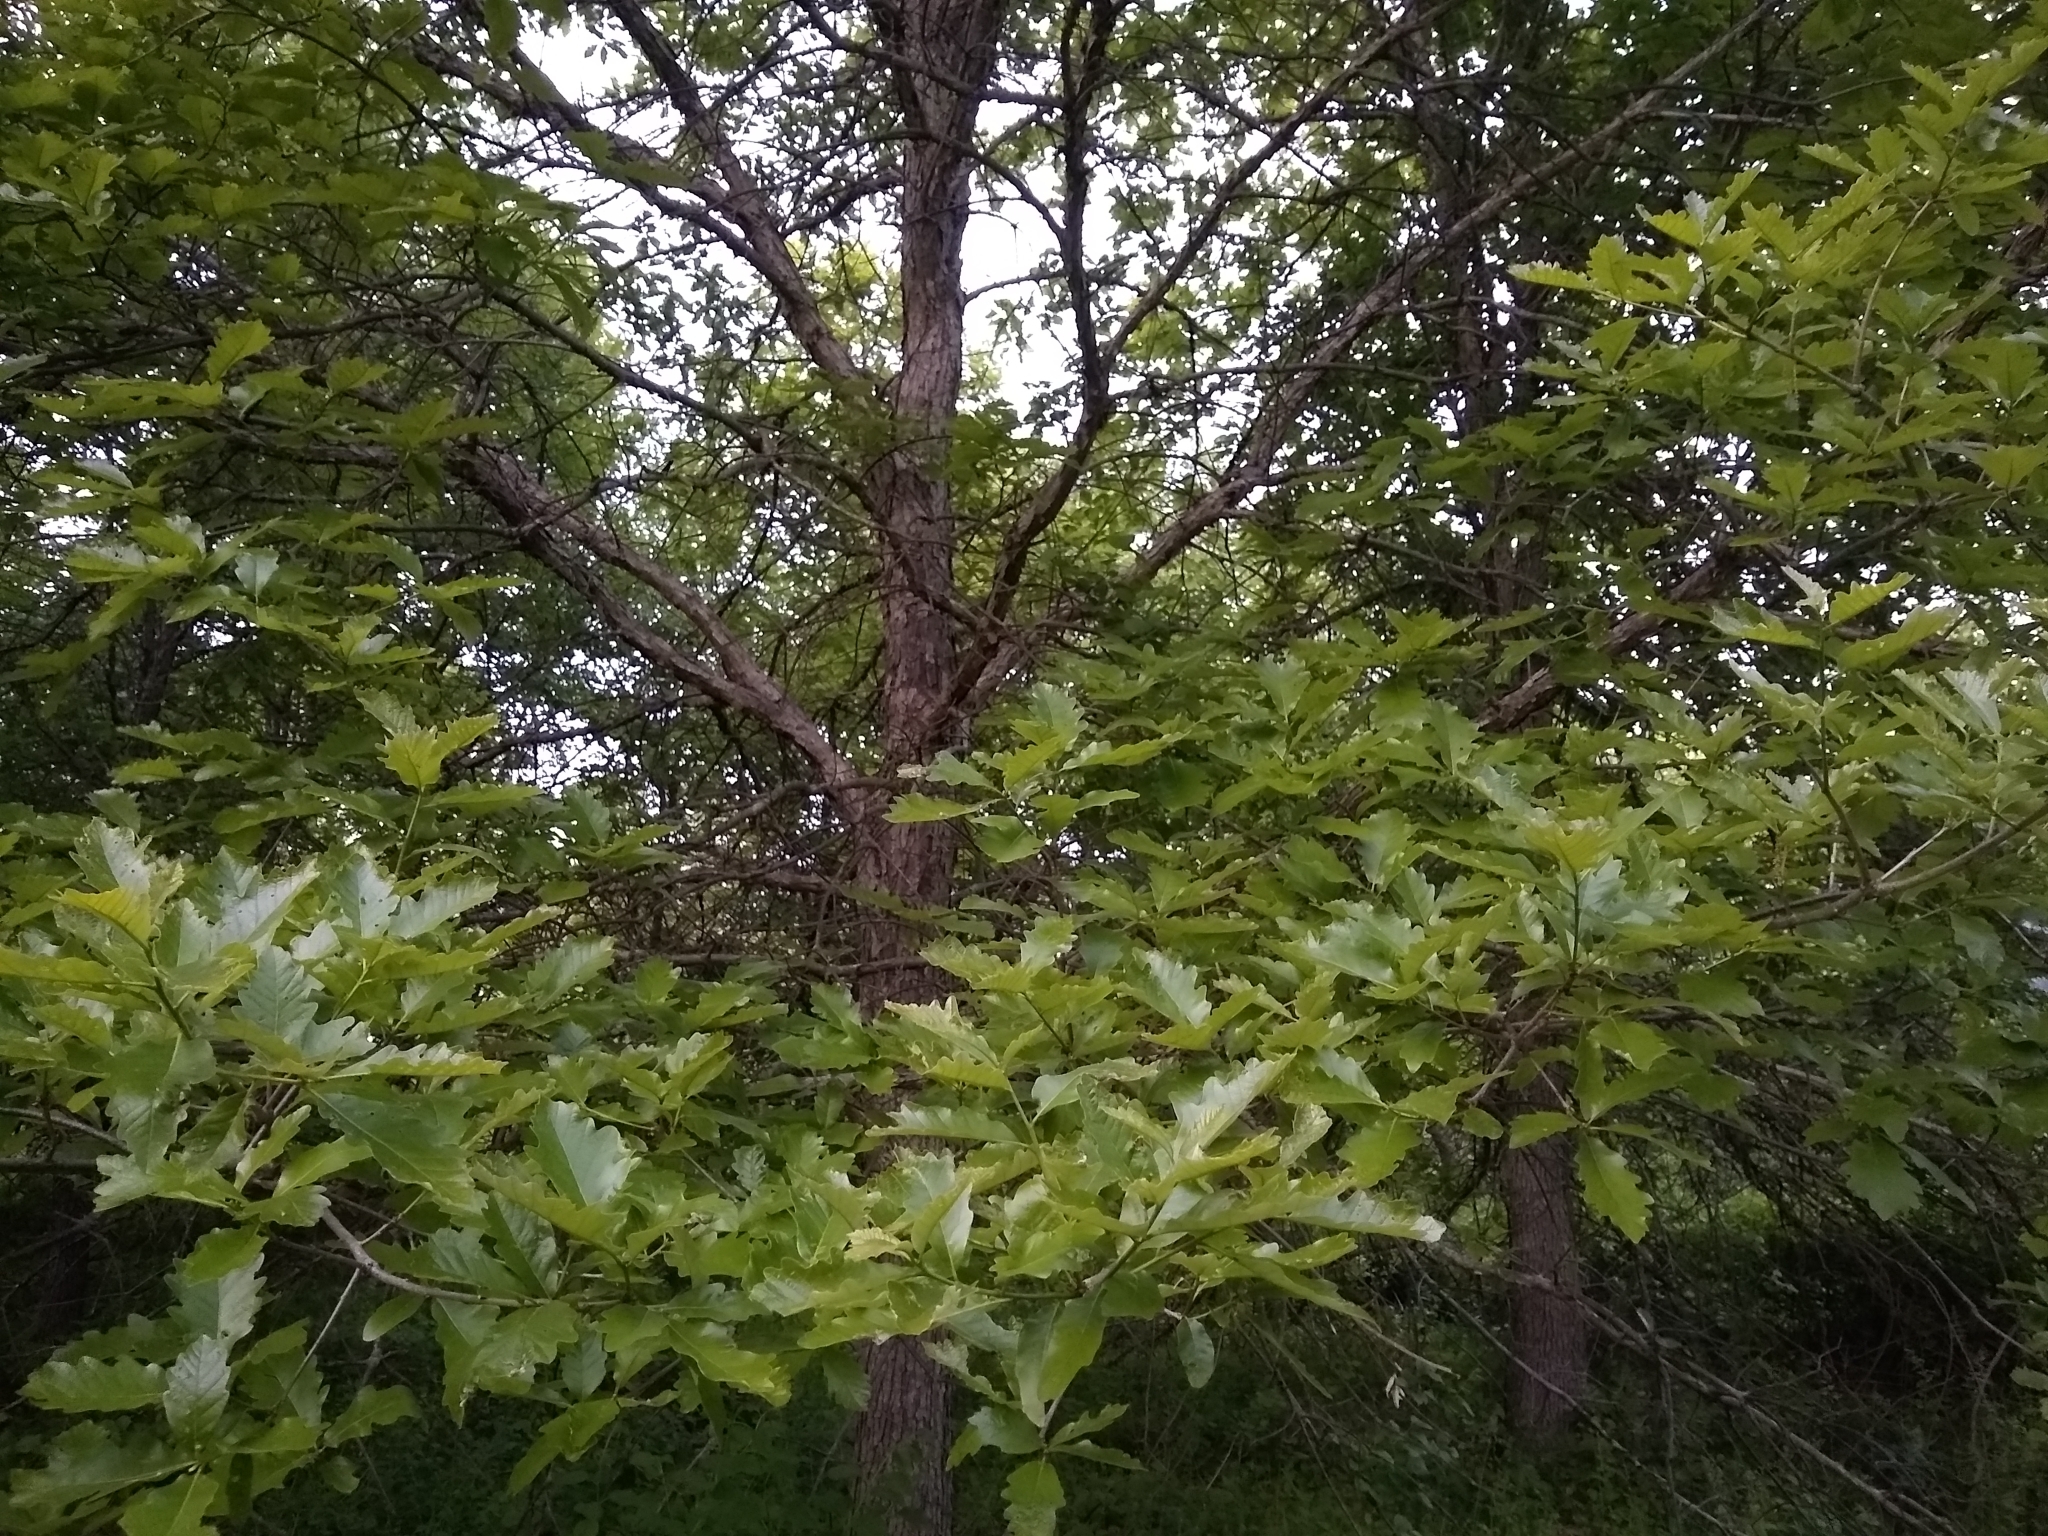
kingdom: Plantae
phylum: Tracheophyta
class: Magnoliopsida
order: Fagales
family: Fagaceae
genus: Quercus
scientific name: Quercus bicolor
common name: Swamp white oak
